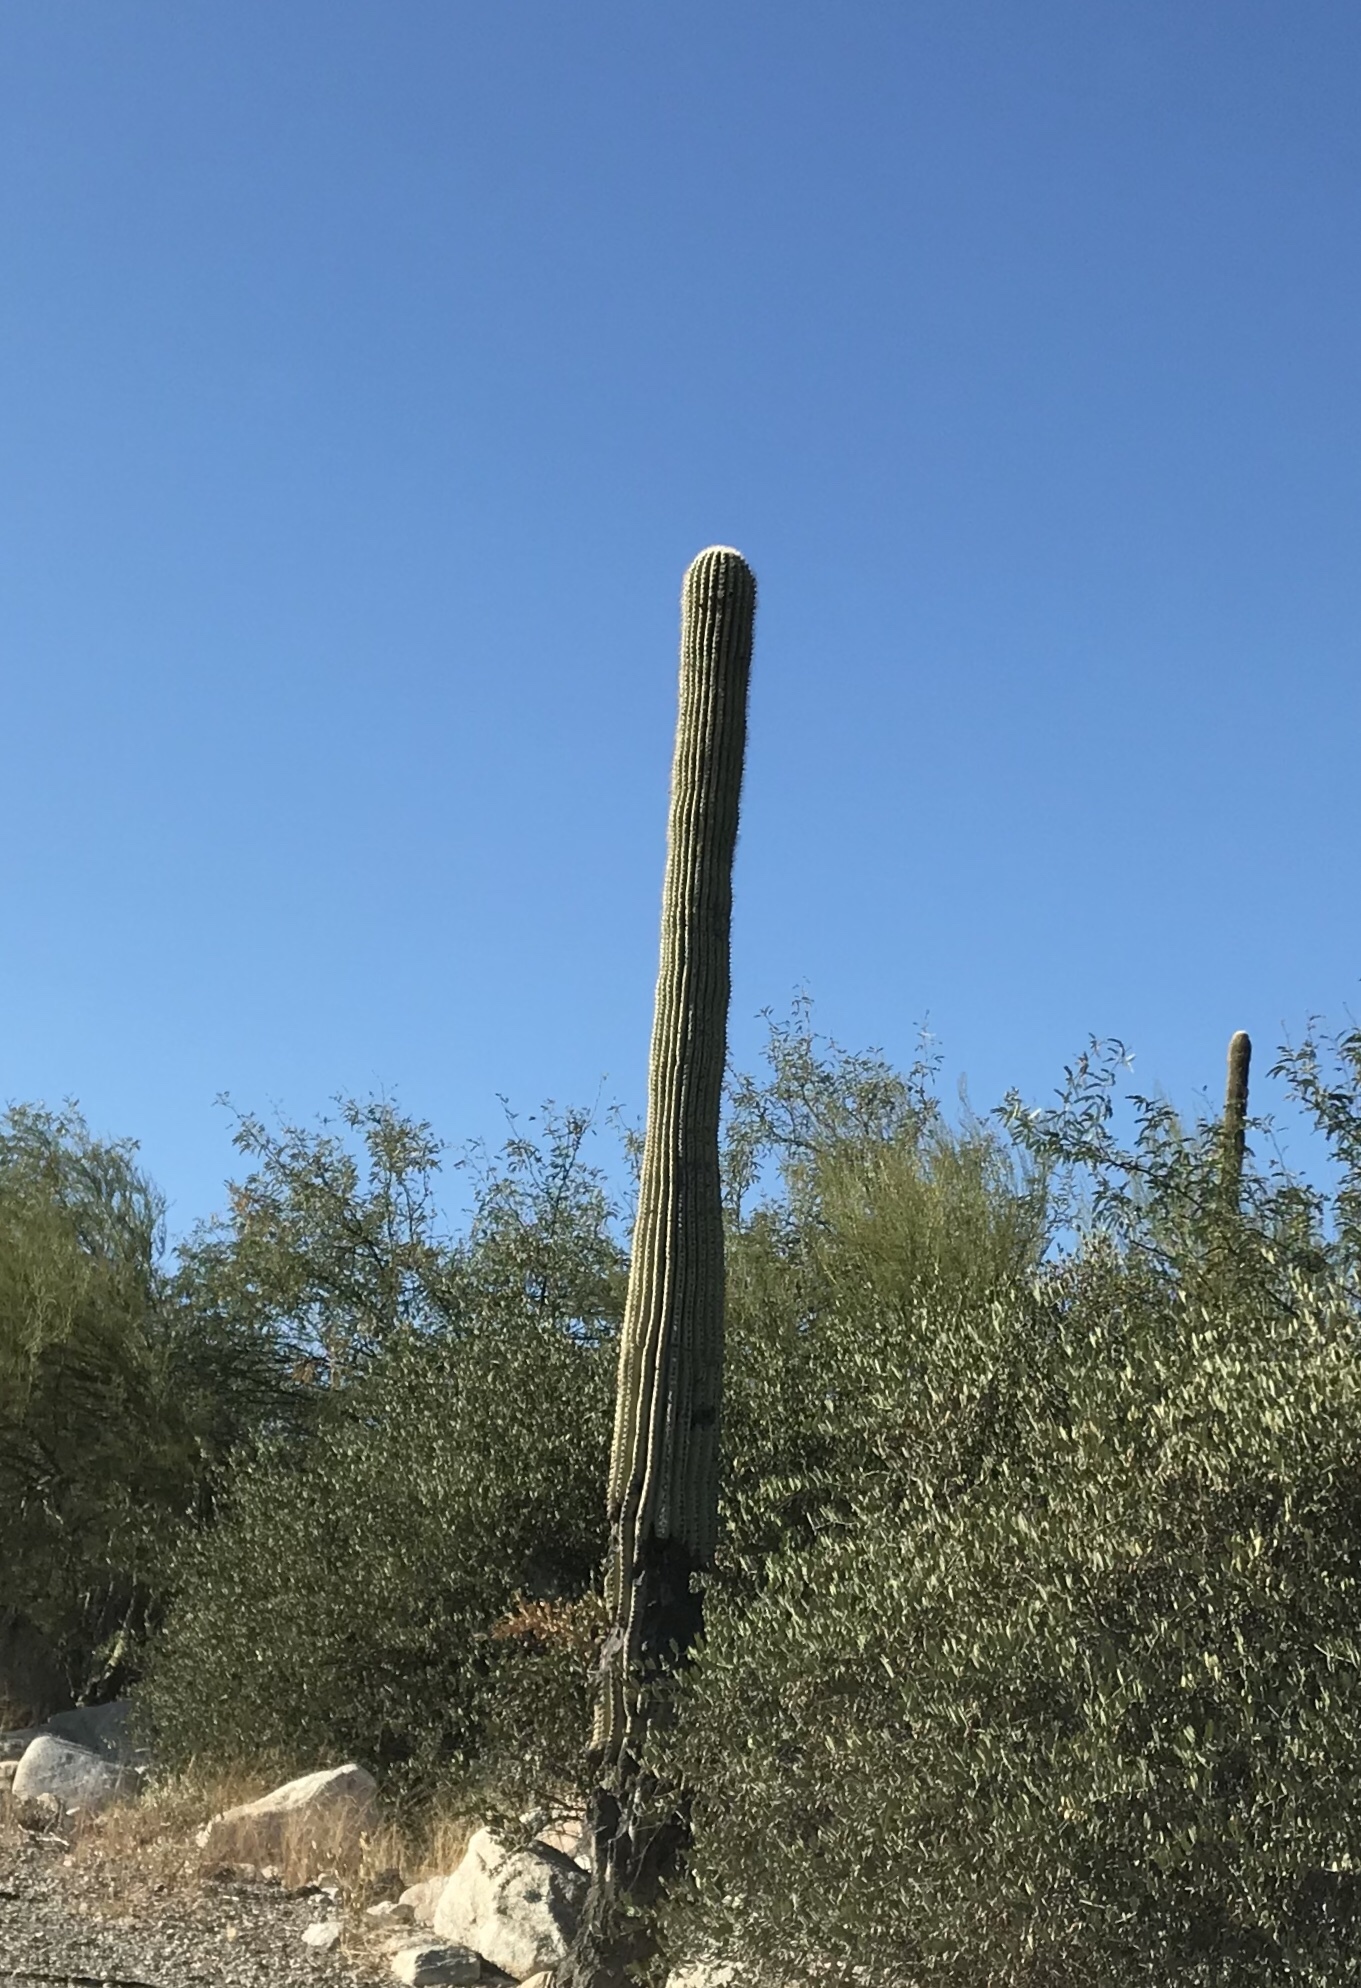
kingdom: Plantae
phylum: Tracheophyta
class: Magnoliopsida
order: Caryophyllales
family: Cactaceae
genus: Carnegiea
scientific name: Carnegiea gigantea
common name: Saguaro
